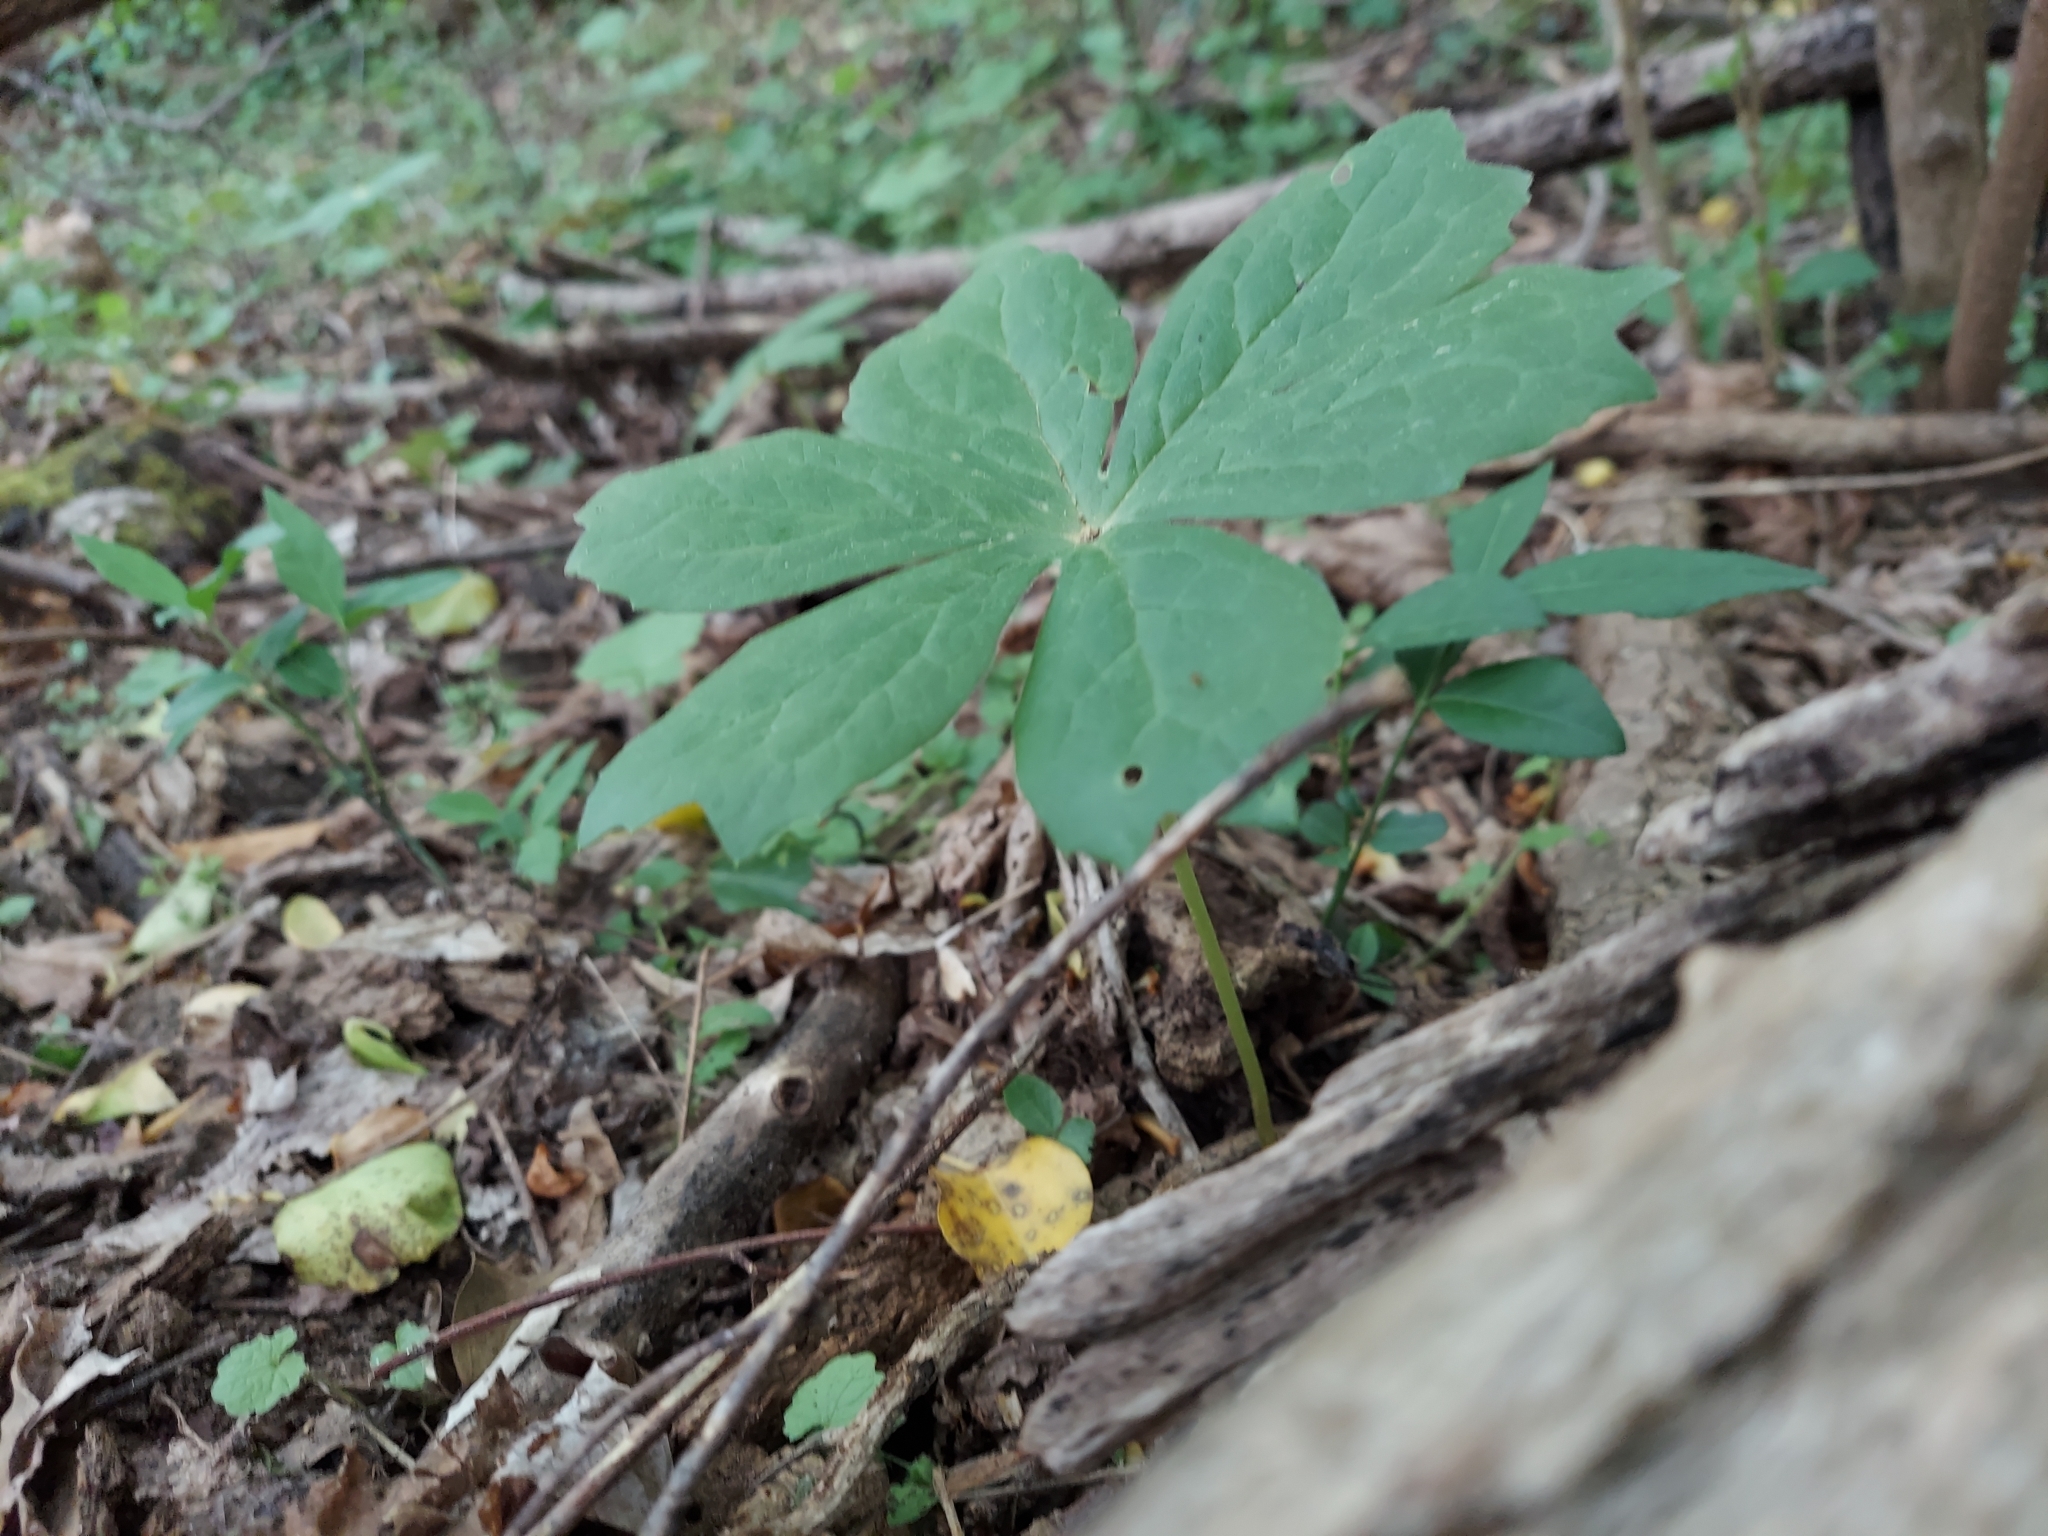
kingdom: Plantae
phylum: Tracheophyta
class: Magnoliopsida
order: Ranunculales
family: Berberidaceae
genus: Podophyllum
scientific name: Podophyllum peltatum
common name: Wild mandrake
